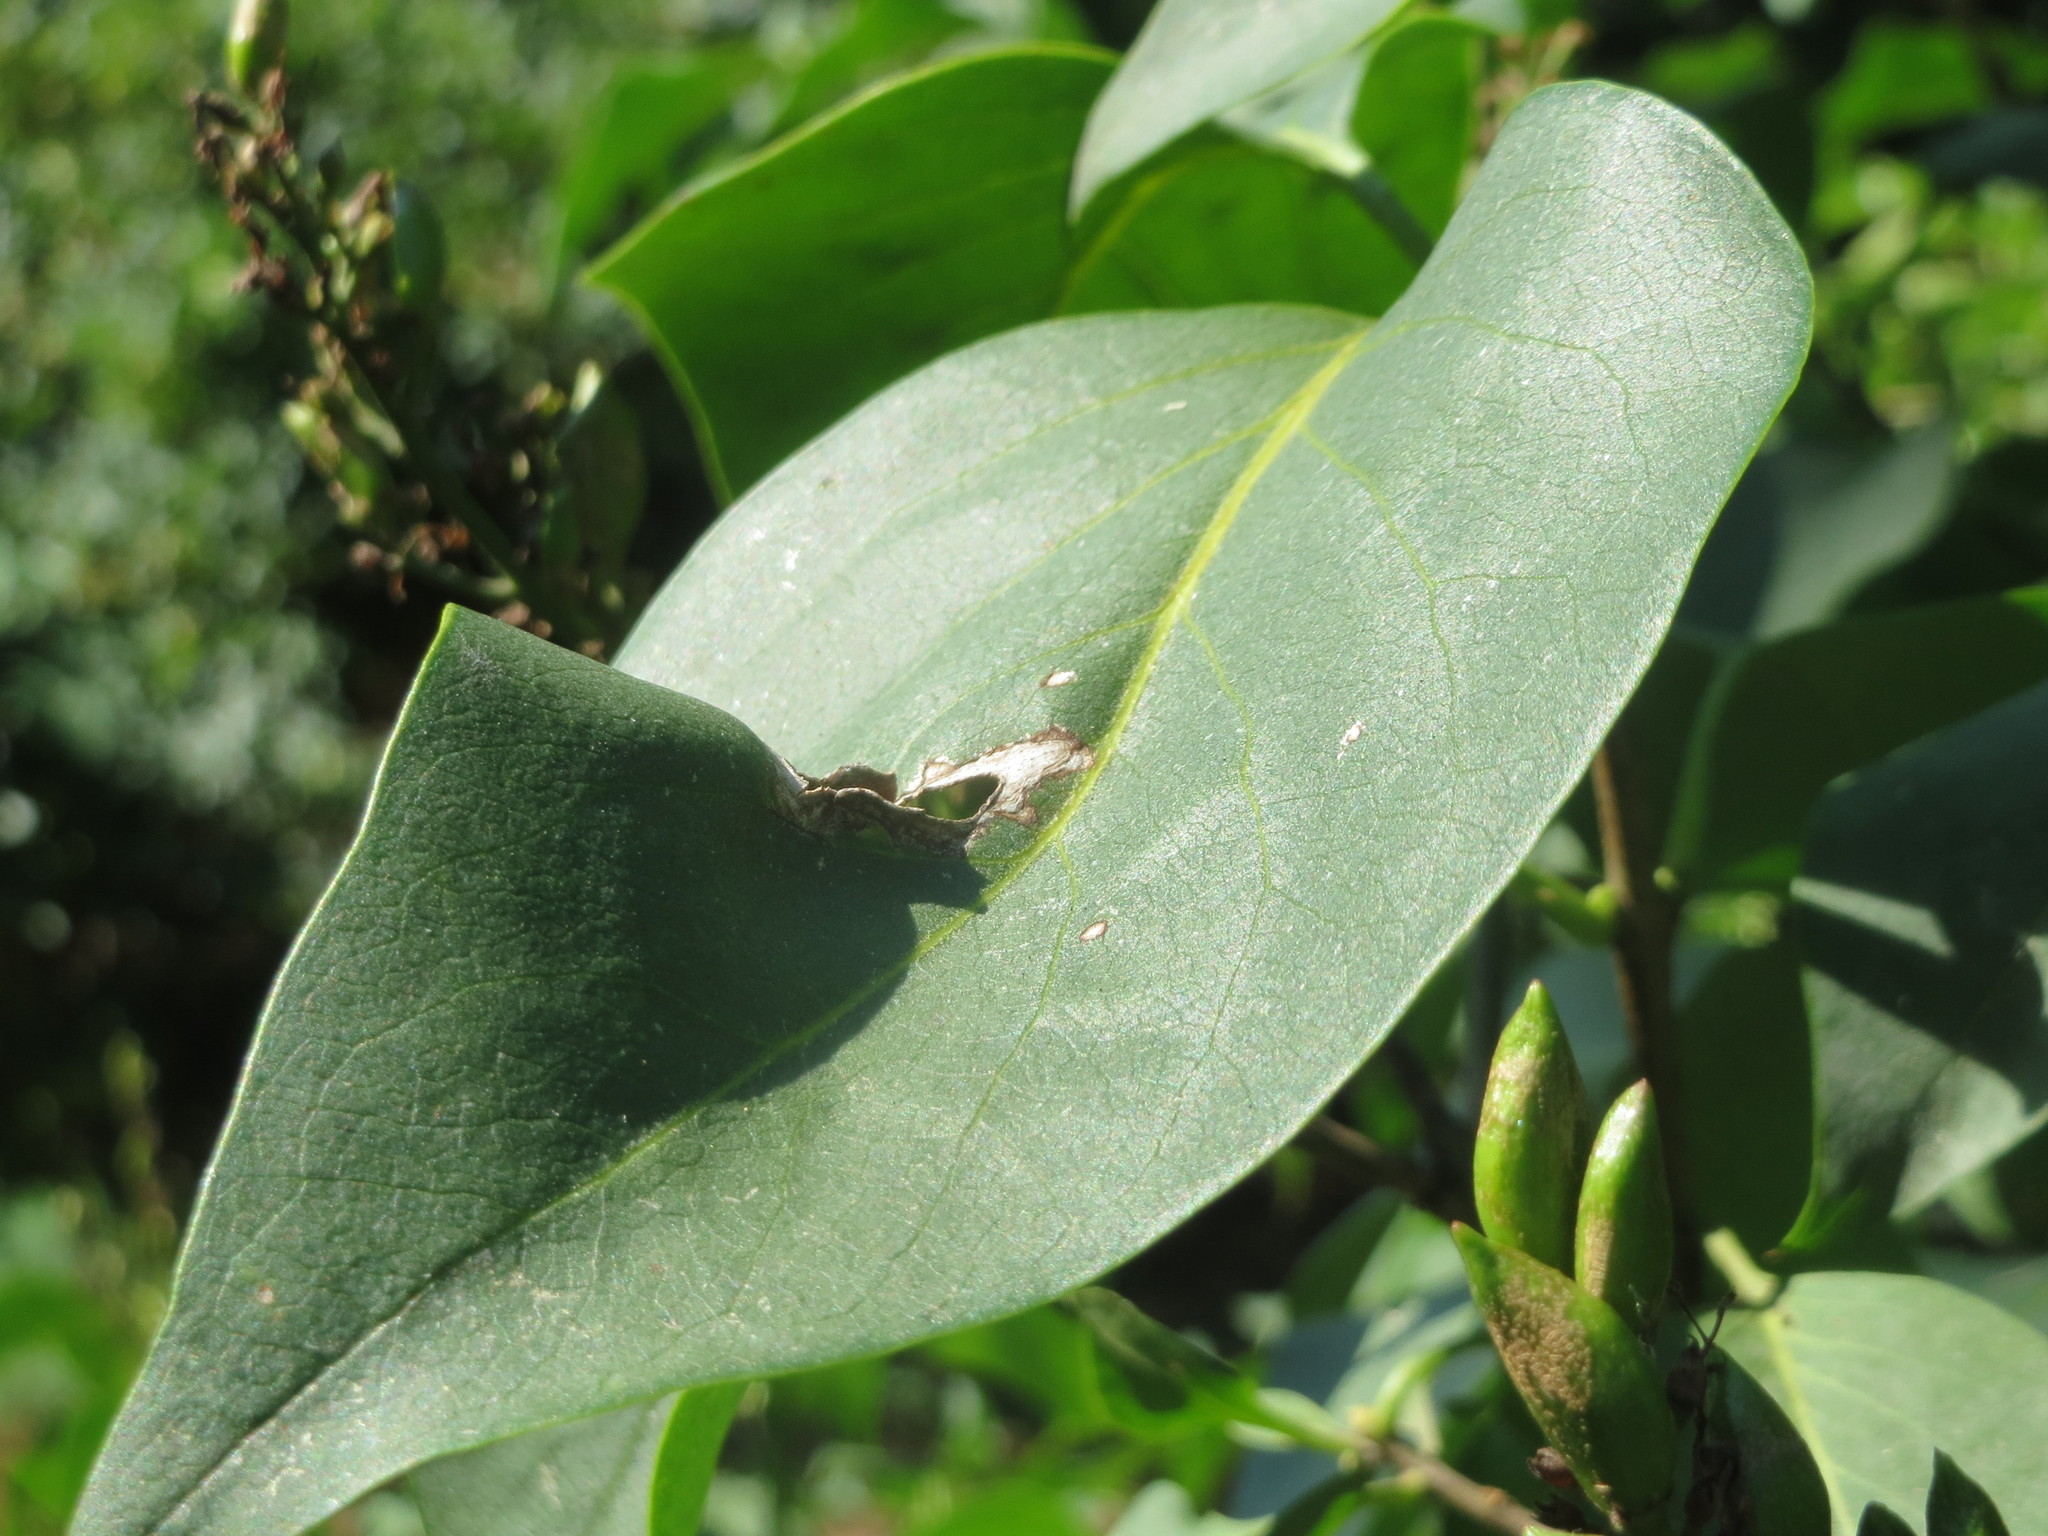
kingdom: Plantae
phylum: Tracheophyta
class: Magnoliopsida
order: Lamiales
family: Oleaceae
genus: Syringa
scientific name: Syringa vulgaris
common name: Common lilac
